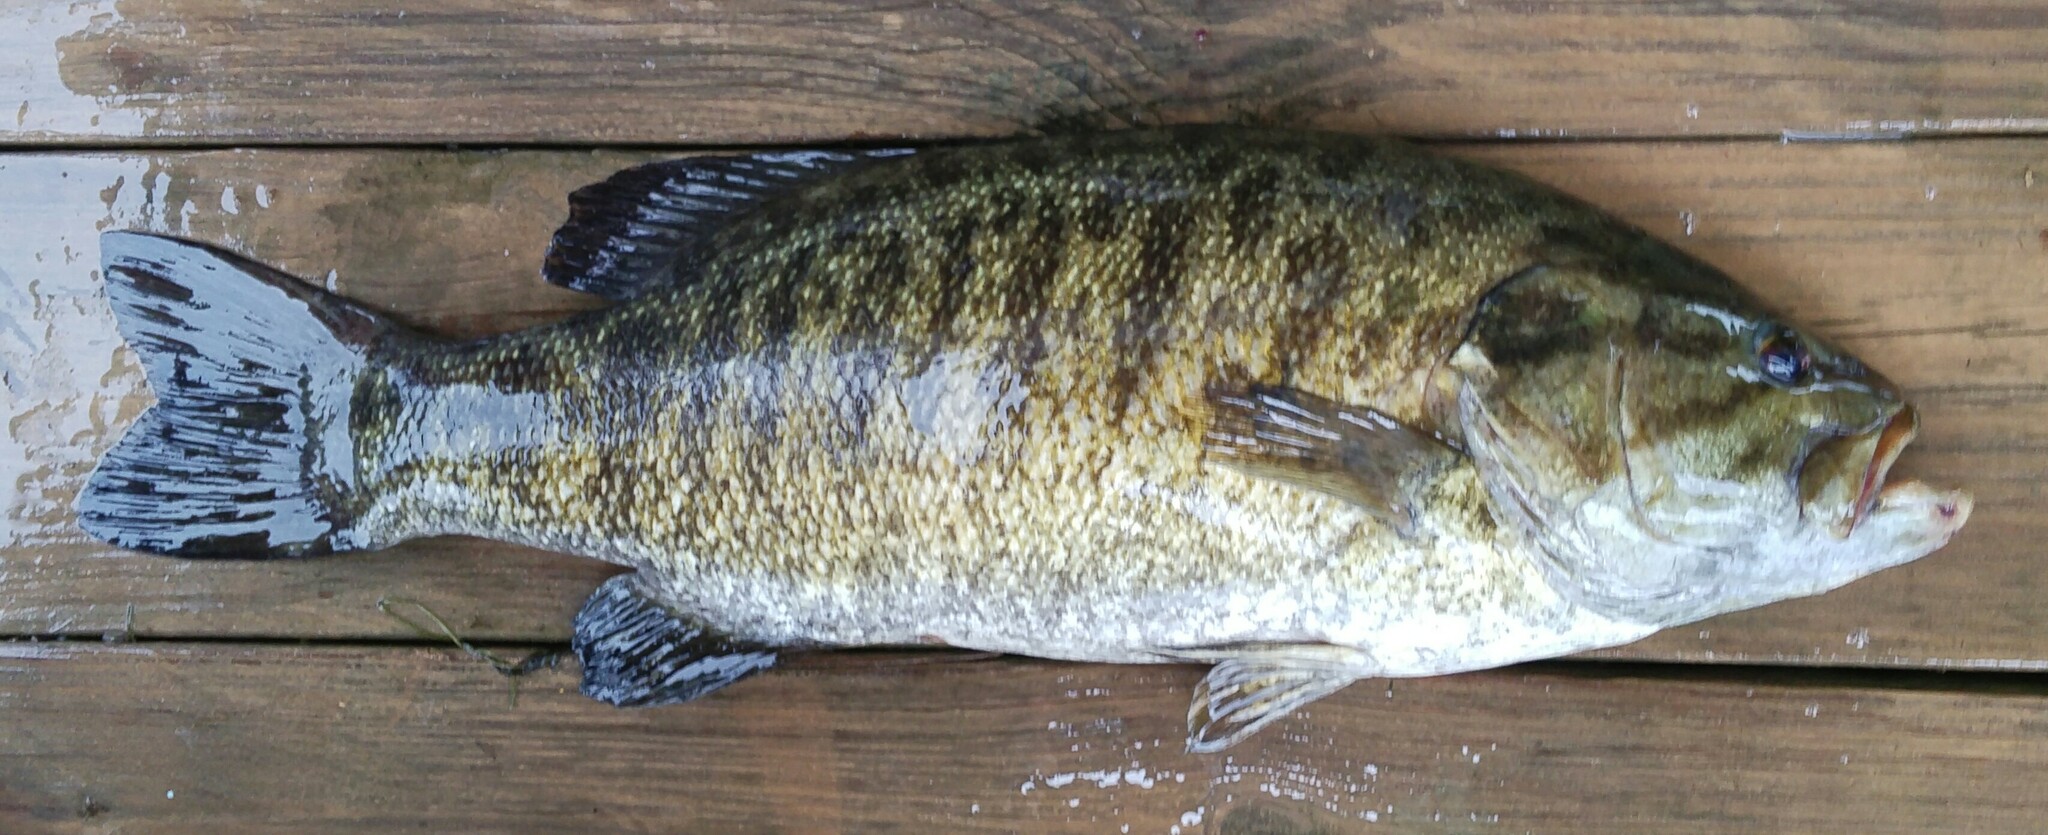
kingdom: Animalia
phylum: Chordata
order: Perciformes
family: Centrarchidae
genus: Micropterus
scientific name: Micropterus dolomieu
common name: Smallmouth bass
